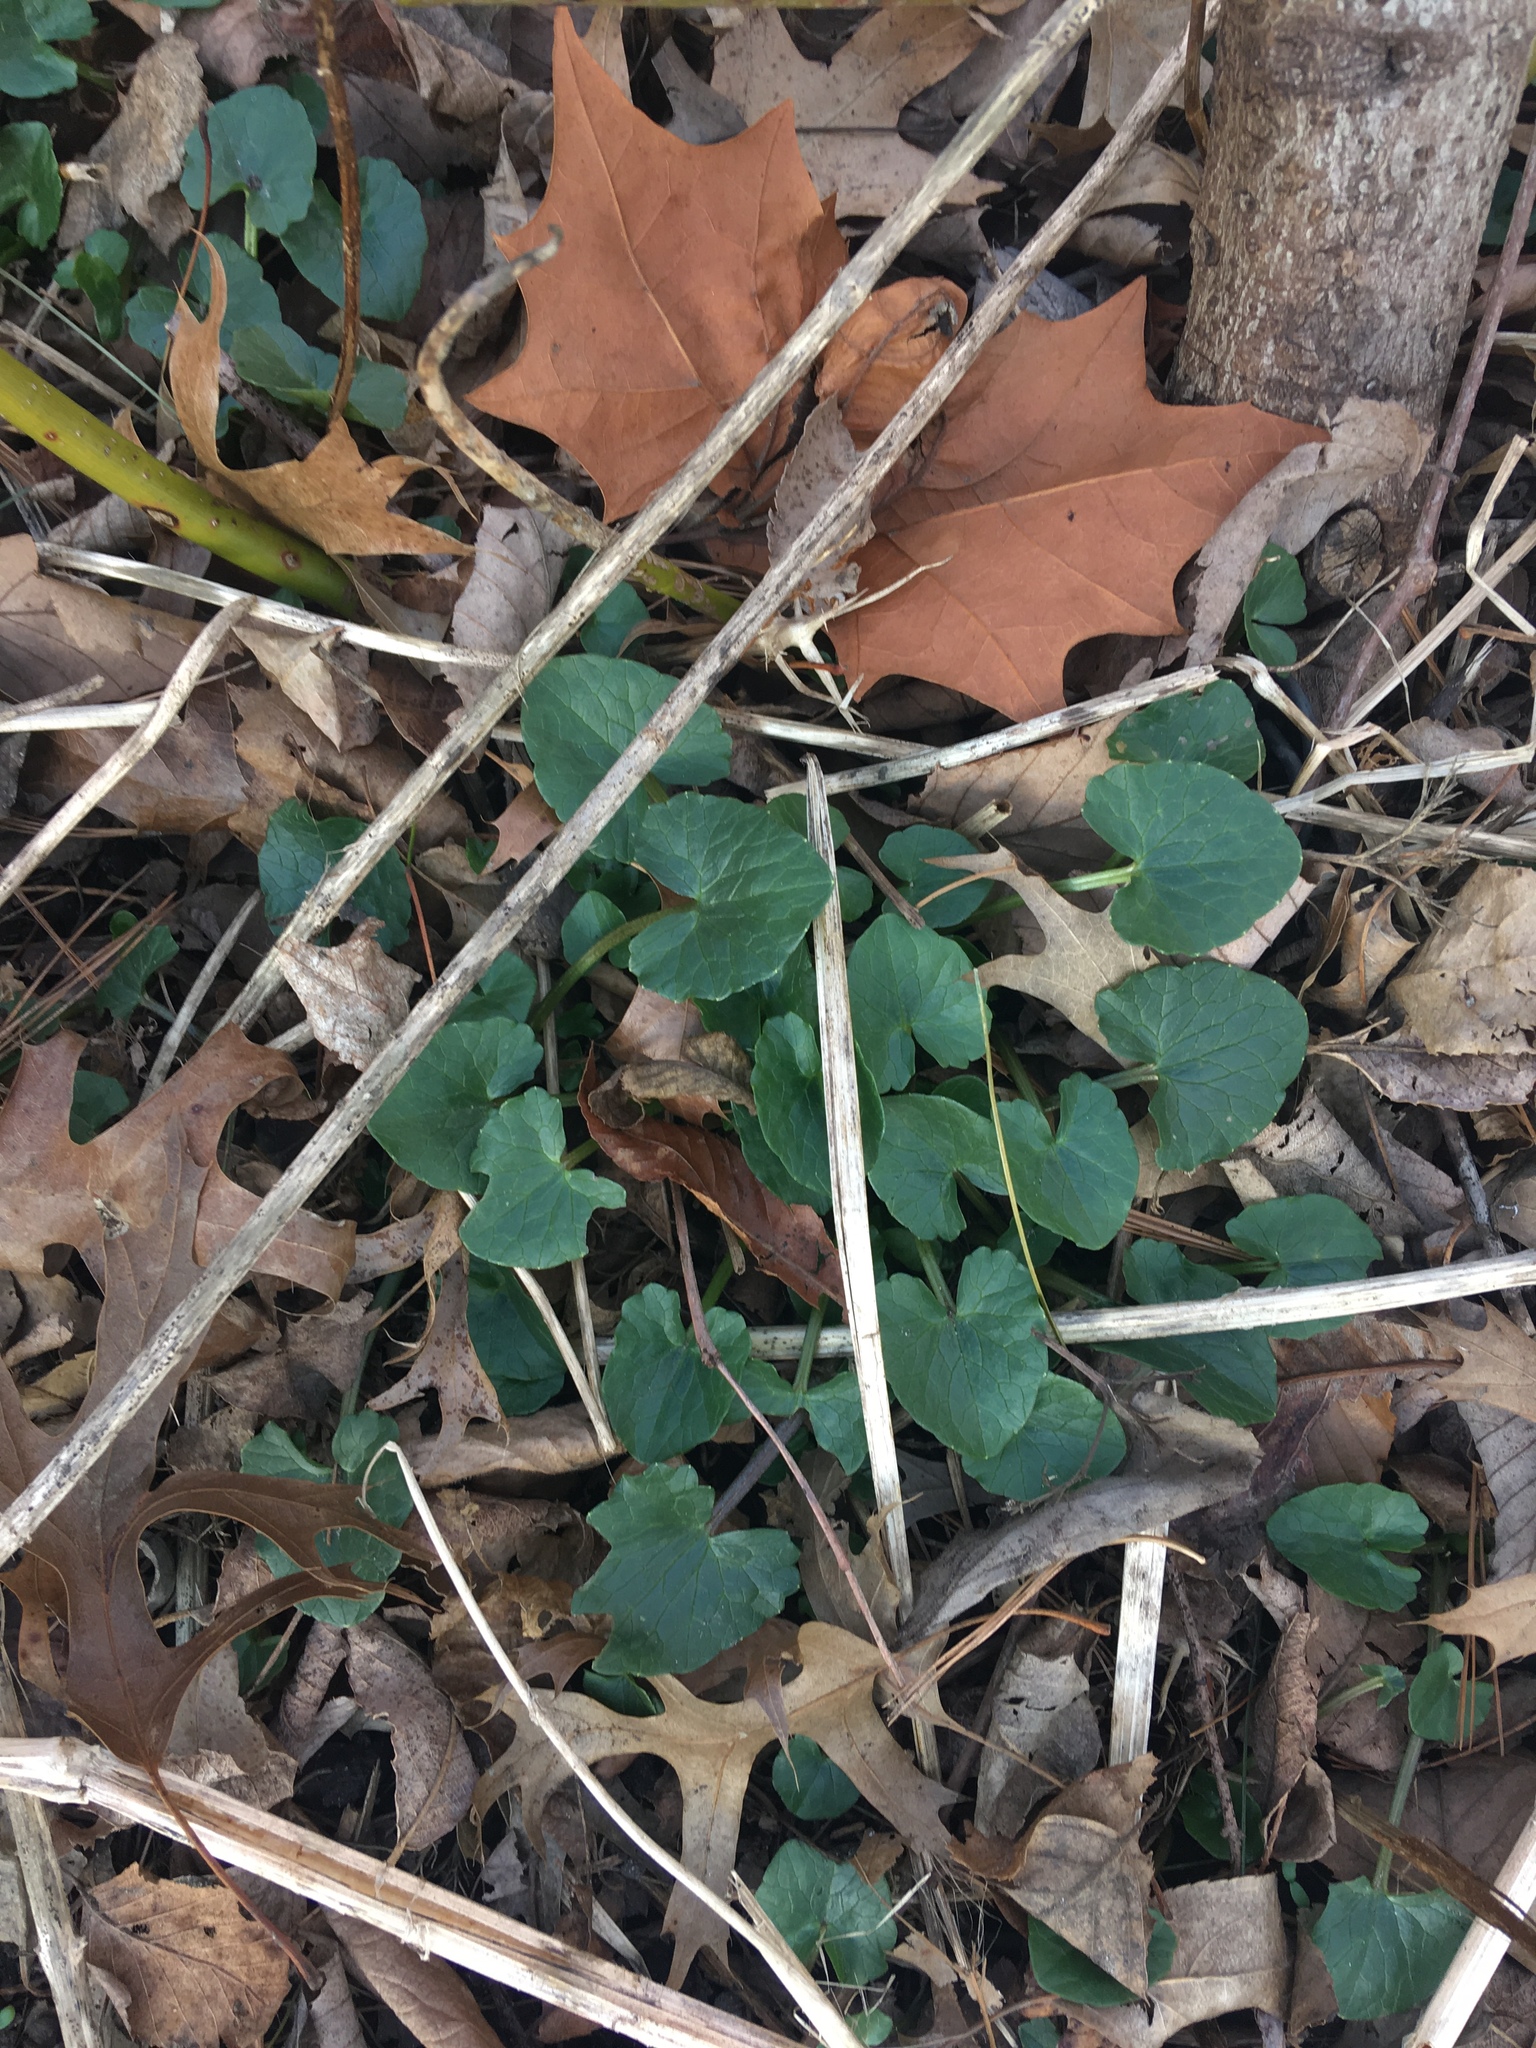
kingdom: Plantae
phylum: Tracheophyta
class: Magnoliopsida
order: Ranunculales
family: Ranunculaceae
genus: Ficaria
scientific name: Ficaria verna
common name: Lesser celandine
